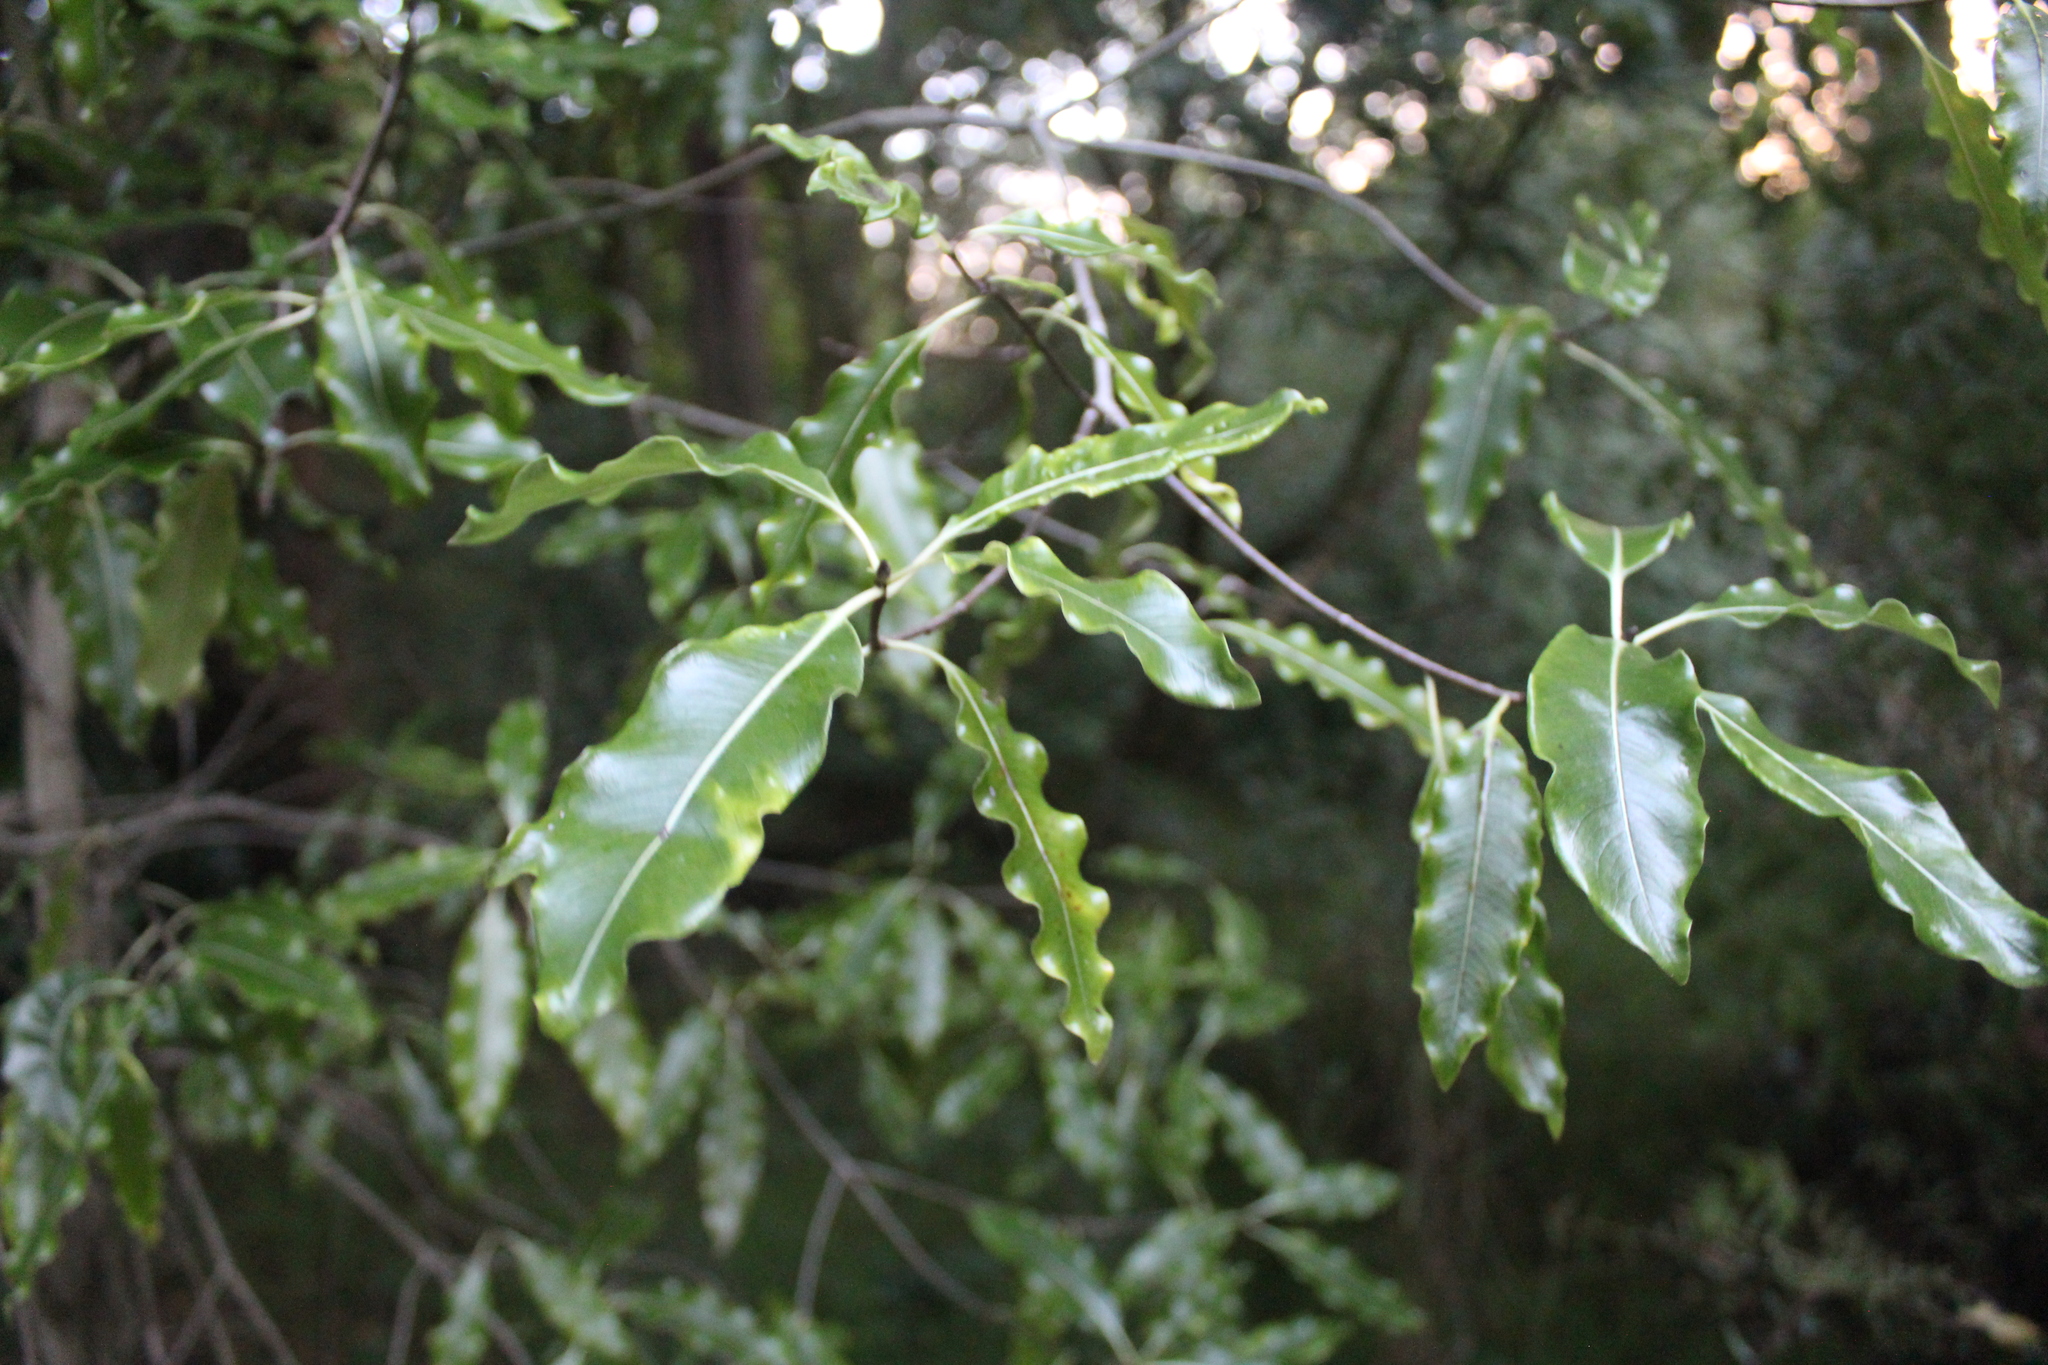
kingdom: Plantae
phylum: Tracheophyta
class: Magnoliopsida
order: Apiales
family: Pittosporaceae
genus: Pittosporum
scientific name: Pittosporum eugenioides
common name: Lemonwood
